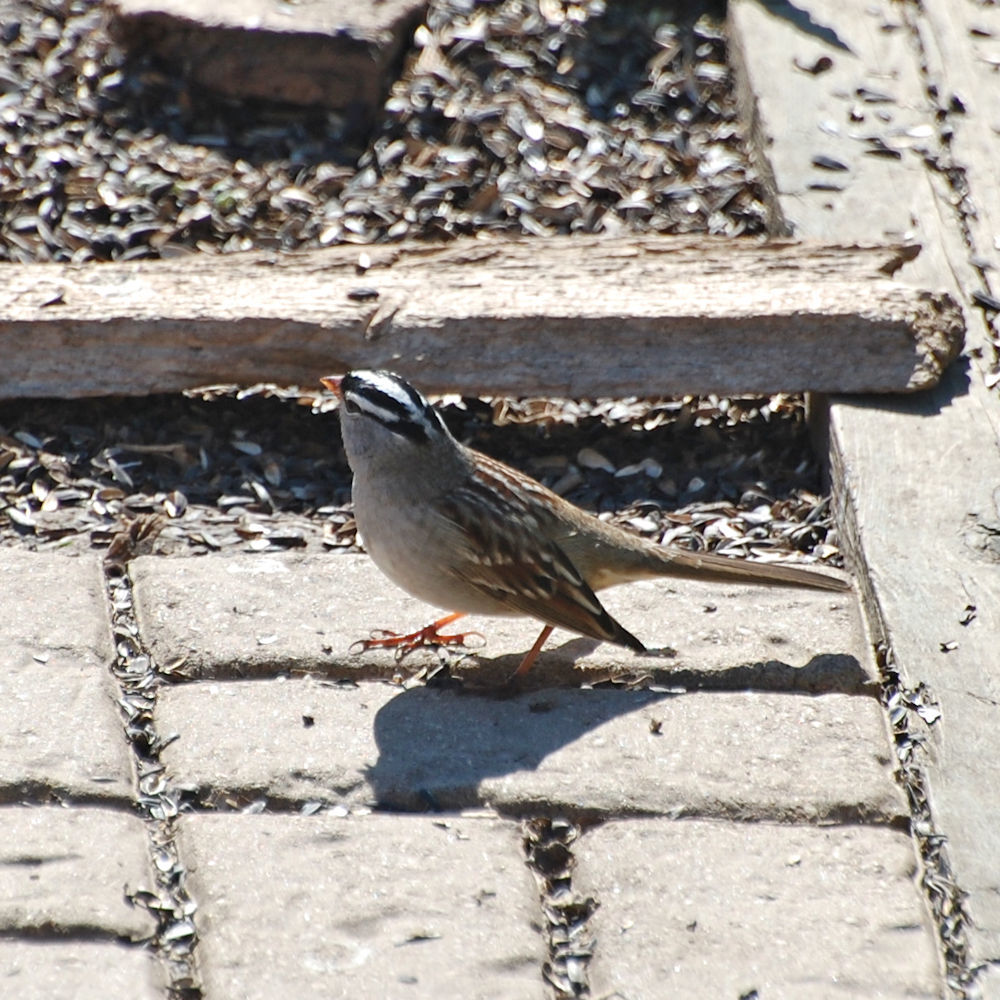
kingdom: Animalia
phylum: Chordata
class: Aves
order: Passeriformes
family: Passerellidae
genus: Zonotrichia
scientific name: Zonotrichia leucophrys
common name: White-crowned sparrow
